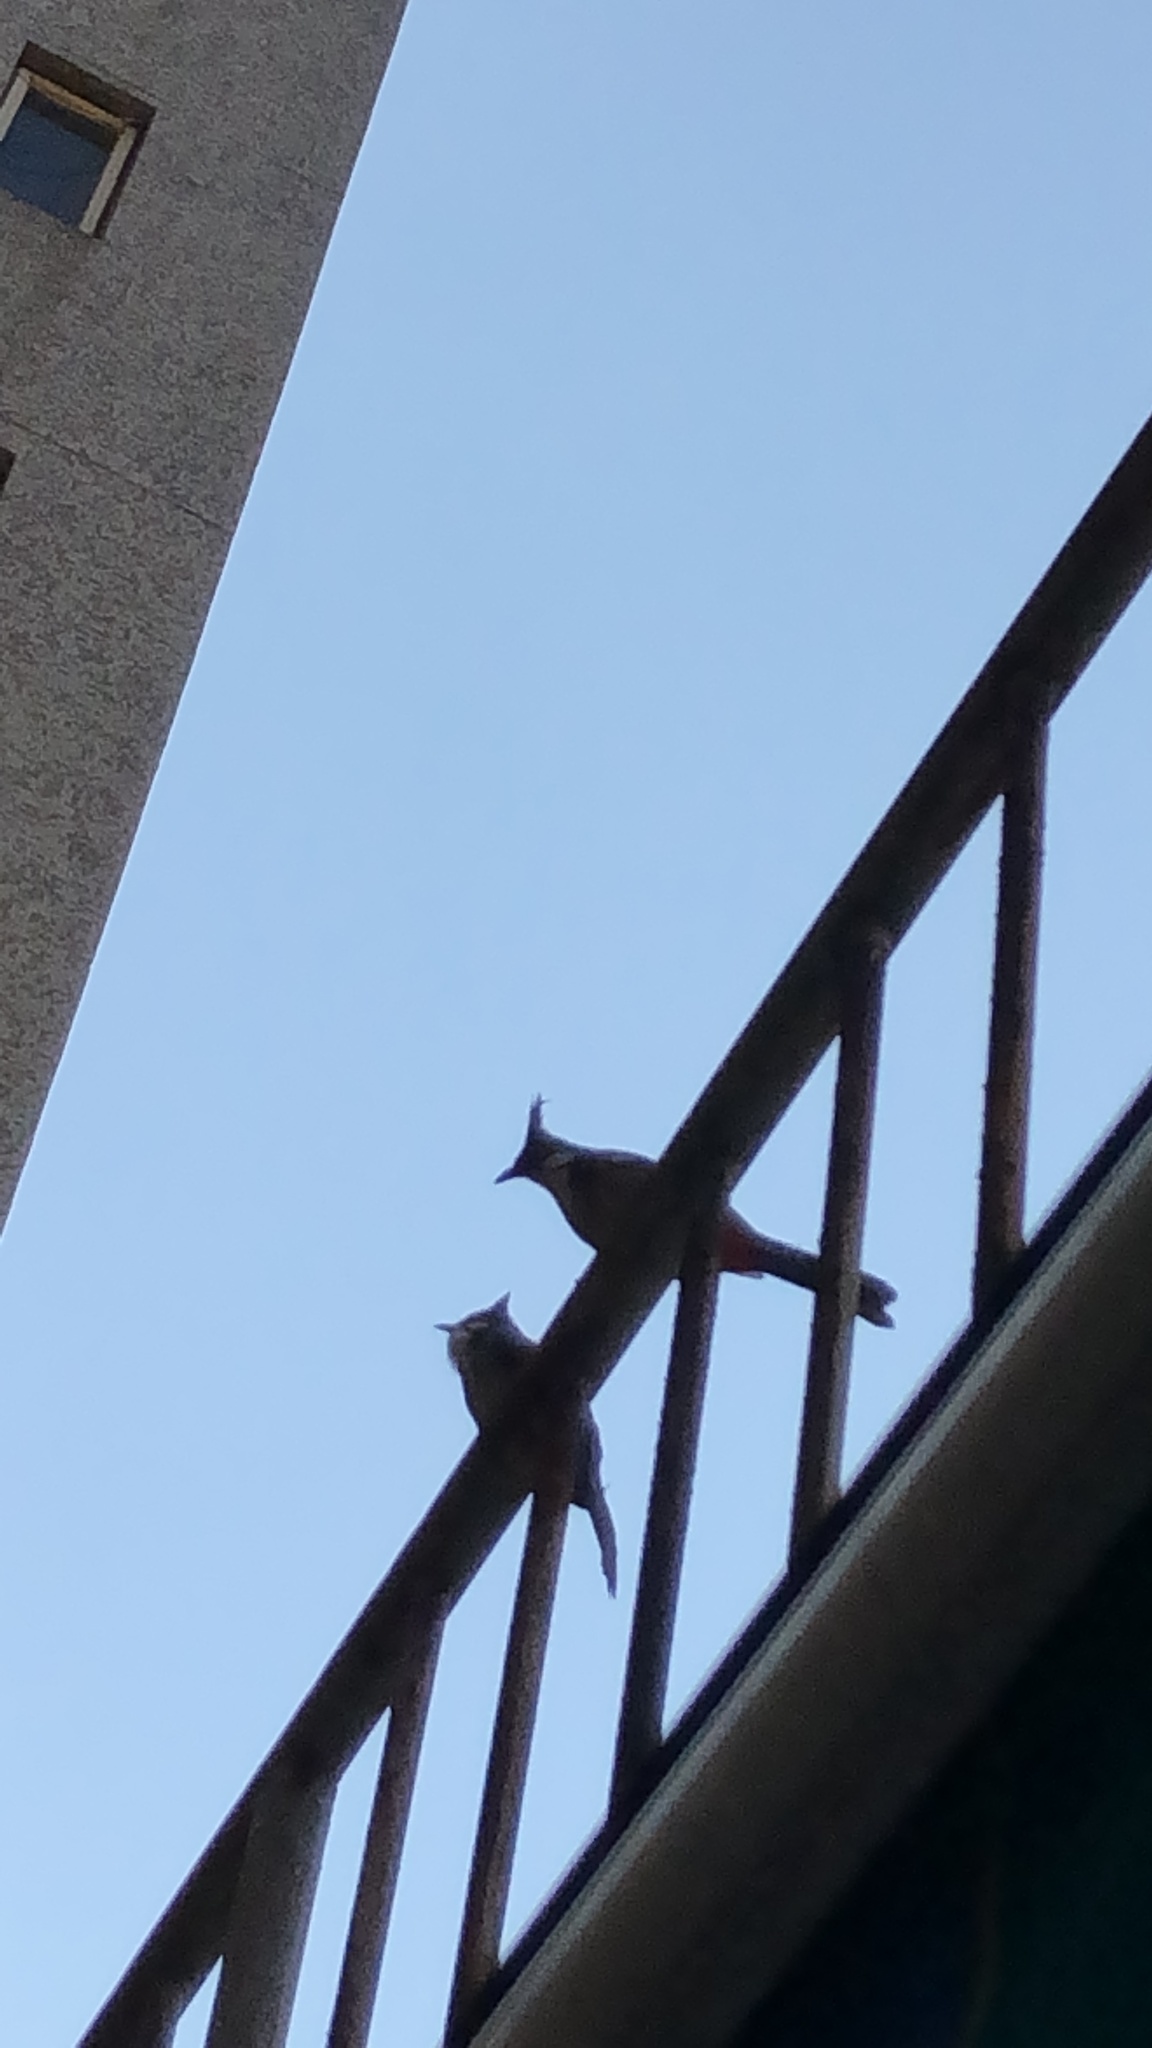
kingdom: Animalia
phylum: Chordata
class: Aves
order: Passeriformes
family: Pycnonotidae
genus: Pycnonotus
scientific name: Pycnonotus jocosus
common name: Red-whiskered bulbul
